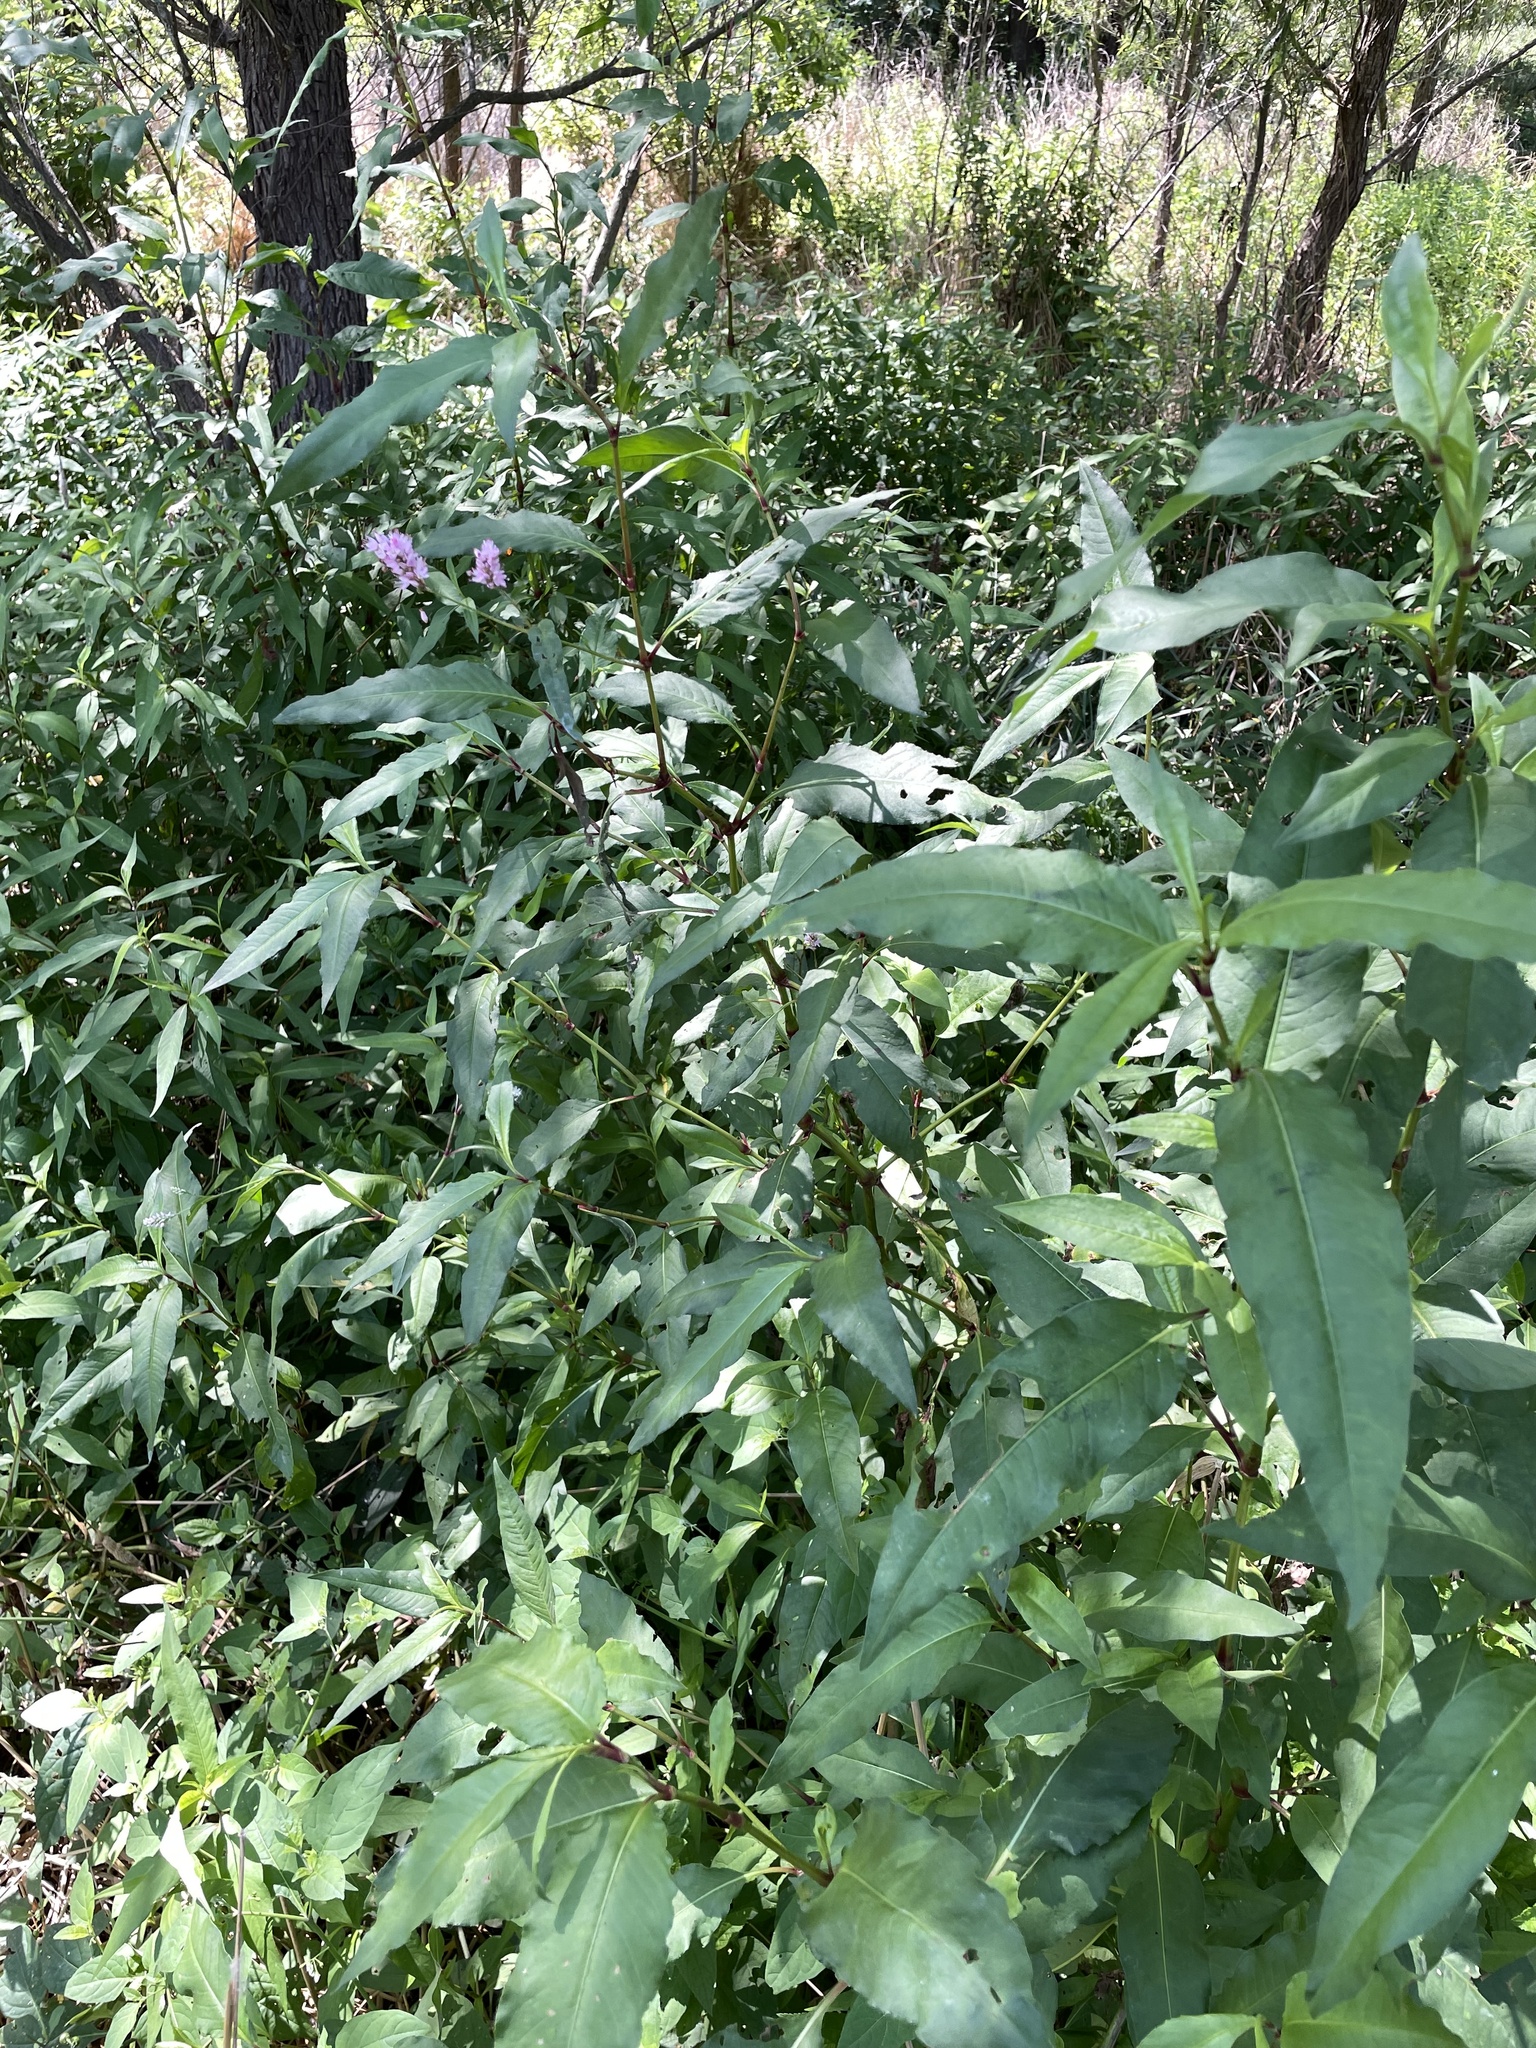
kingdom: Plantae
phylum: Tracheophyta
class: Magnoliopsida
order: Caryophyllales
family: Polygonaceae
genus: Persicaria
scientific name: Persicaria bicornis
